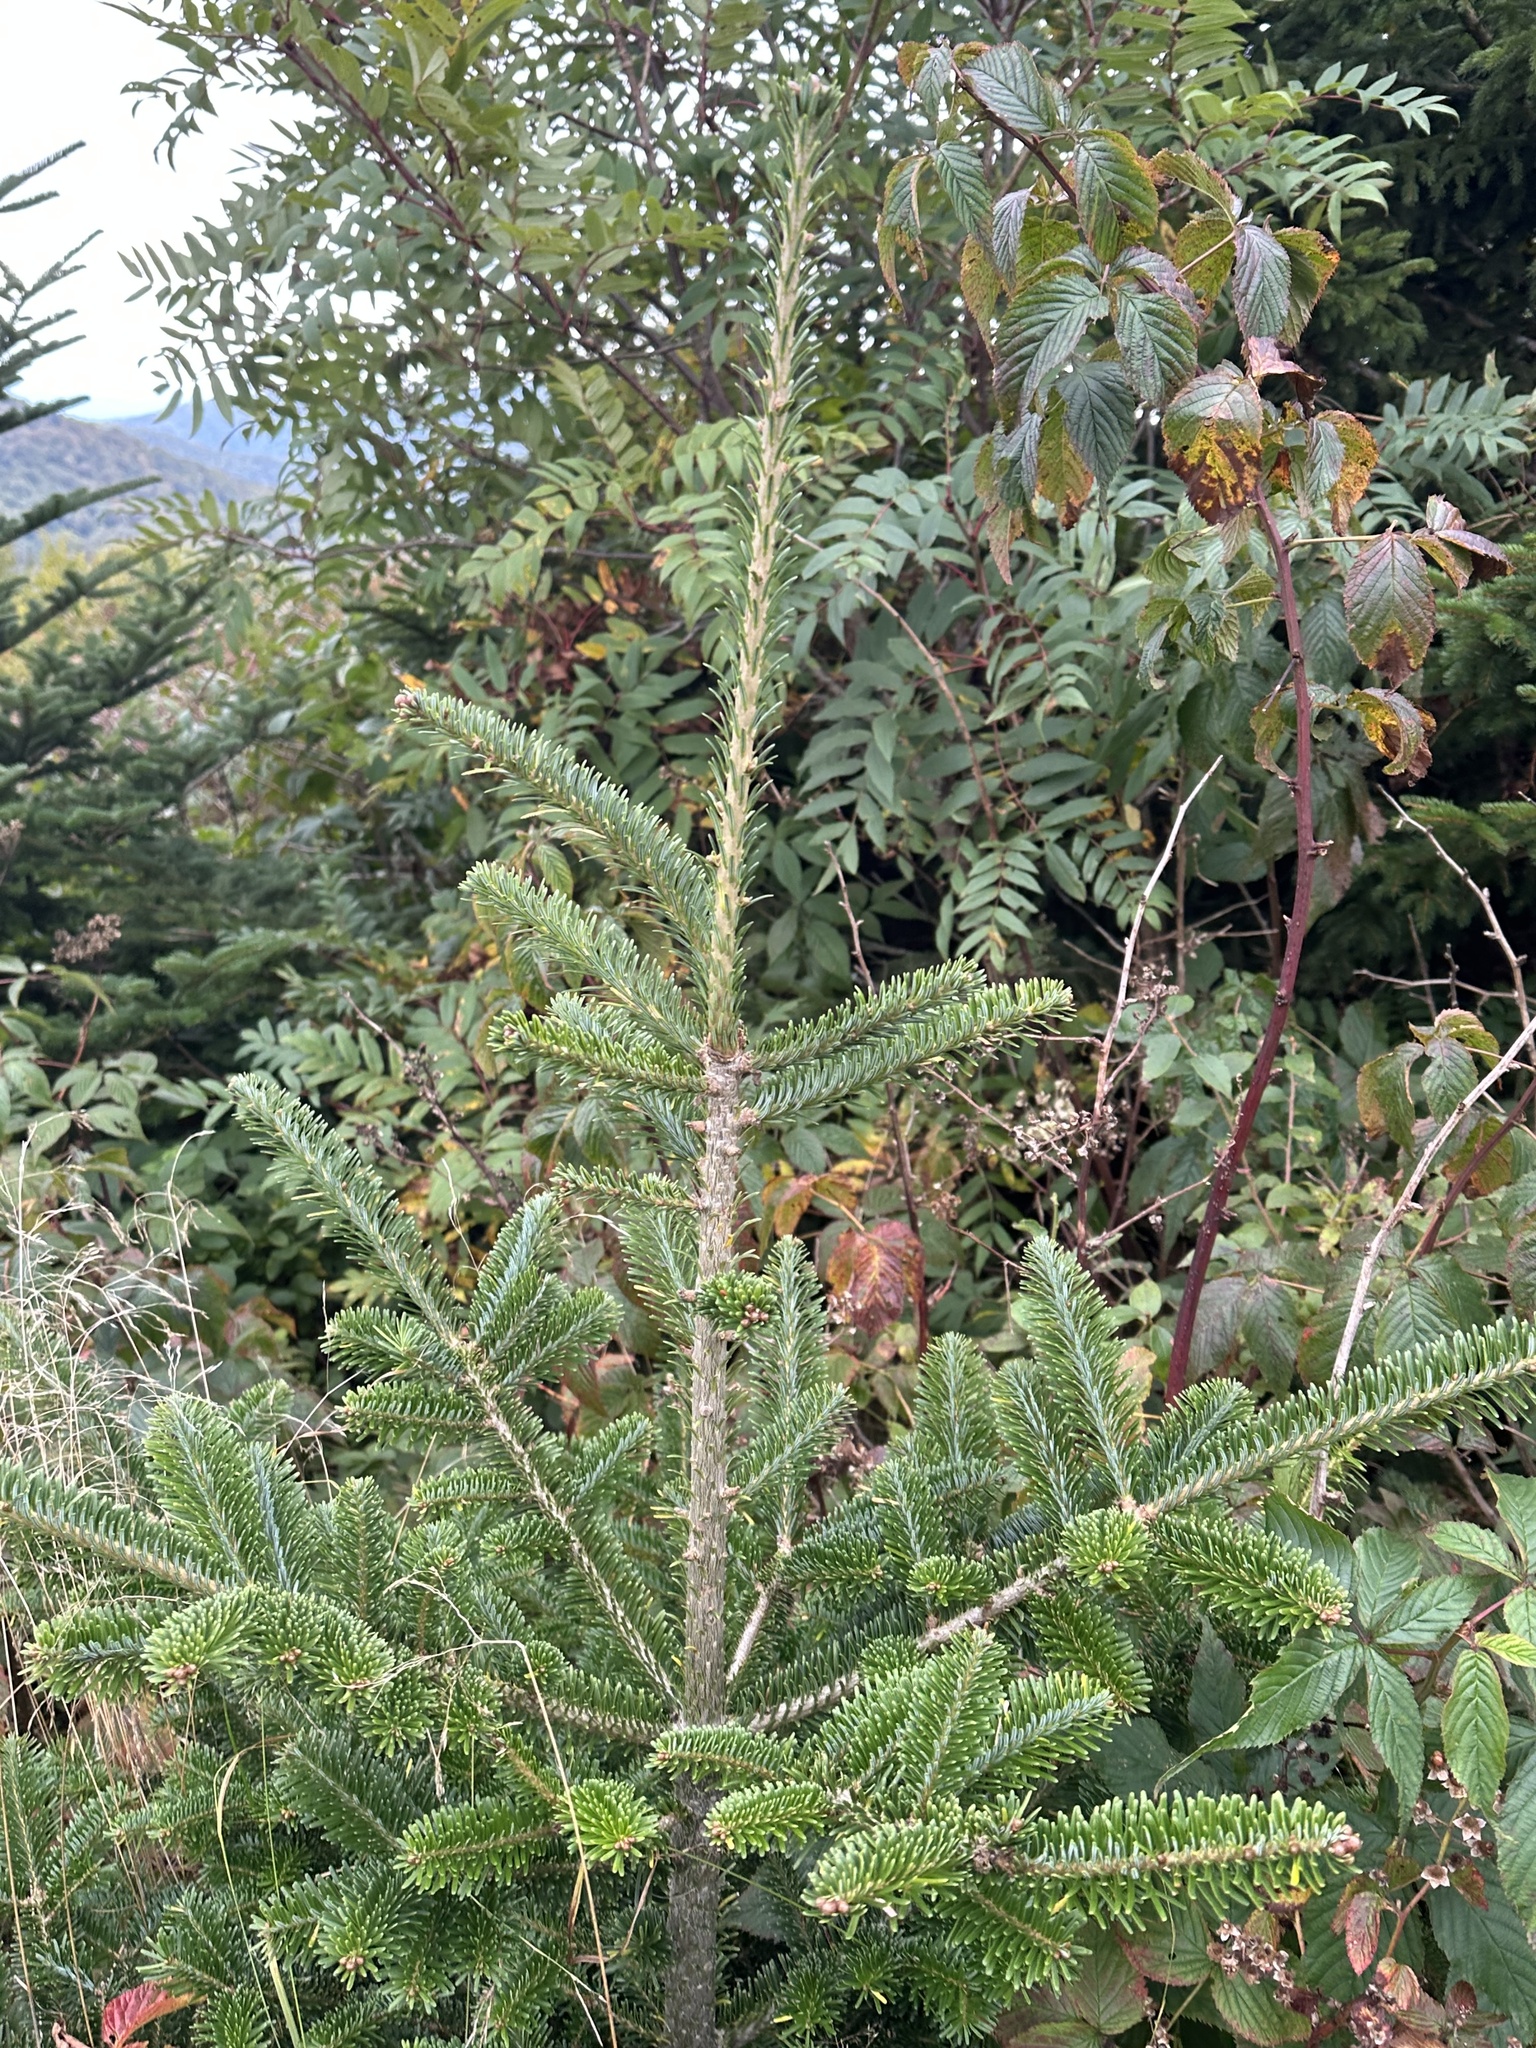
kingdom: Plantae
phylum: Tracheophyta
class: Pinopsida
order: Pinales
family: Pinaceae
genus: Abies
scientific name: Abies fraseri
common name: Fraser fir
